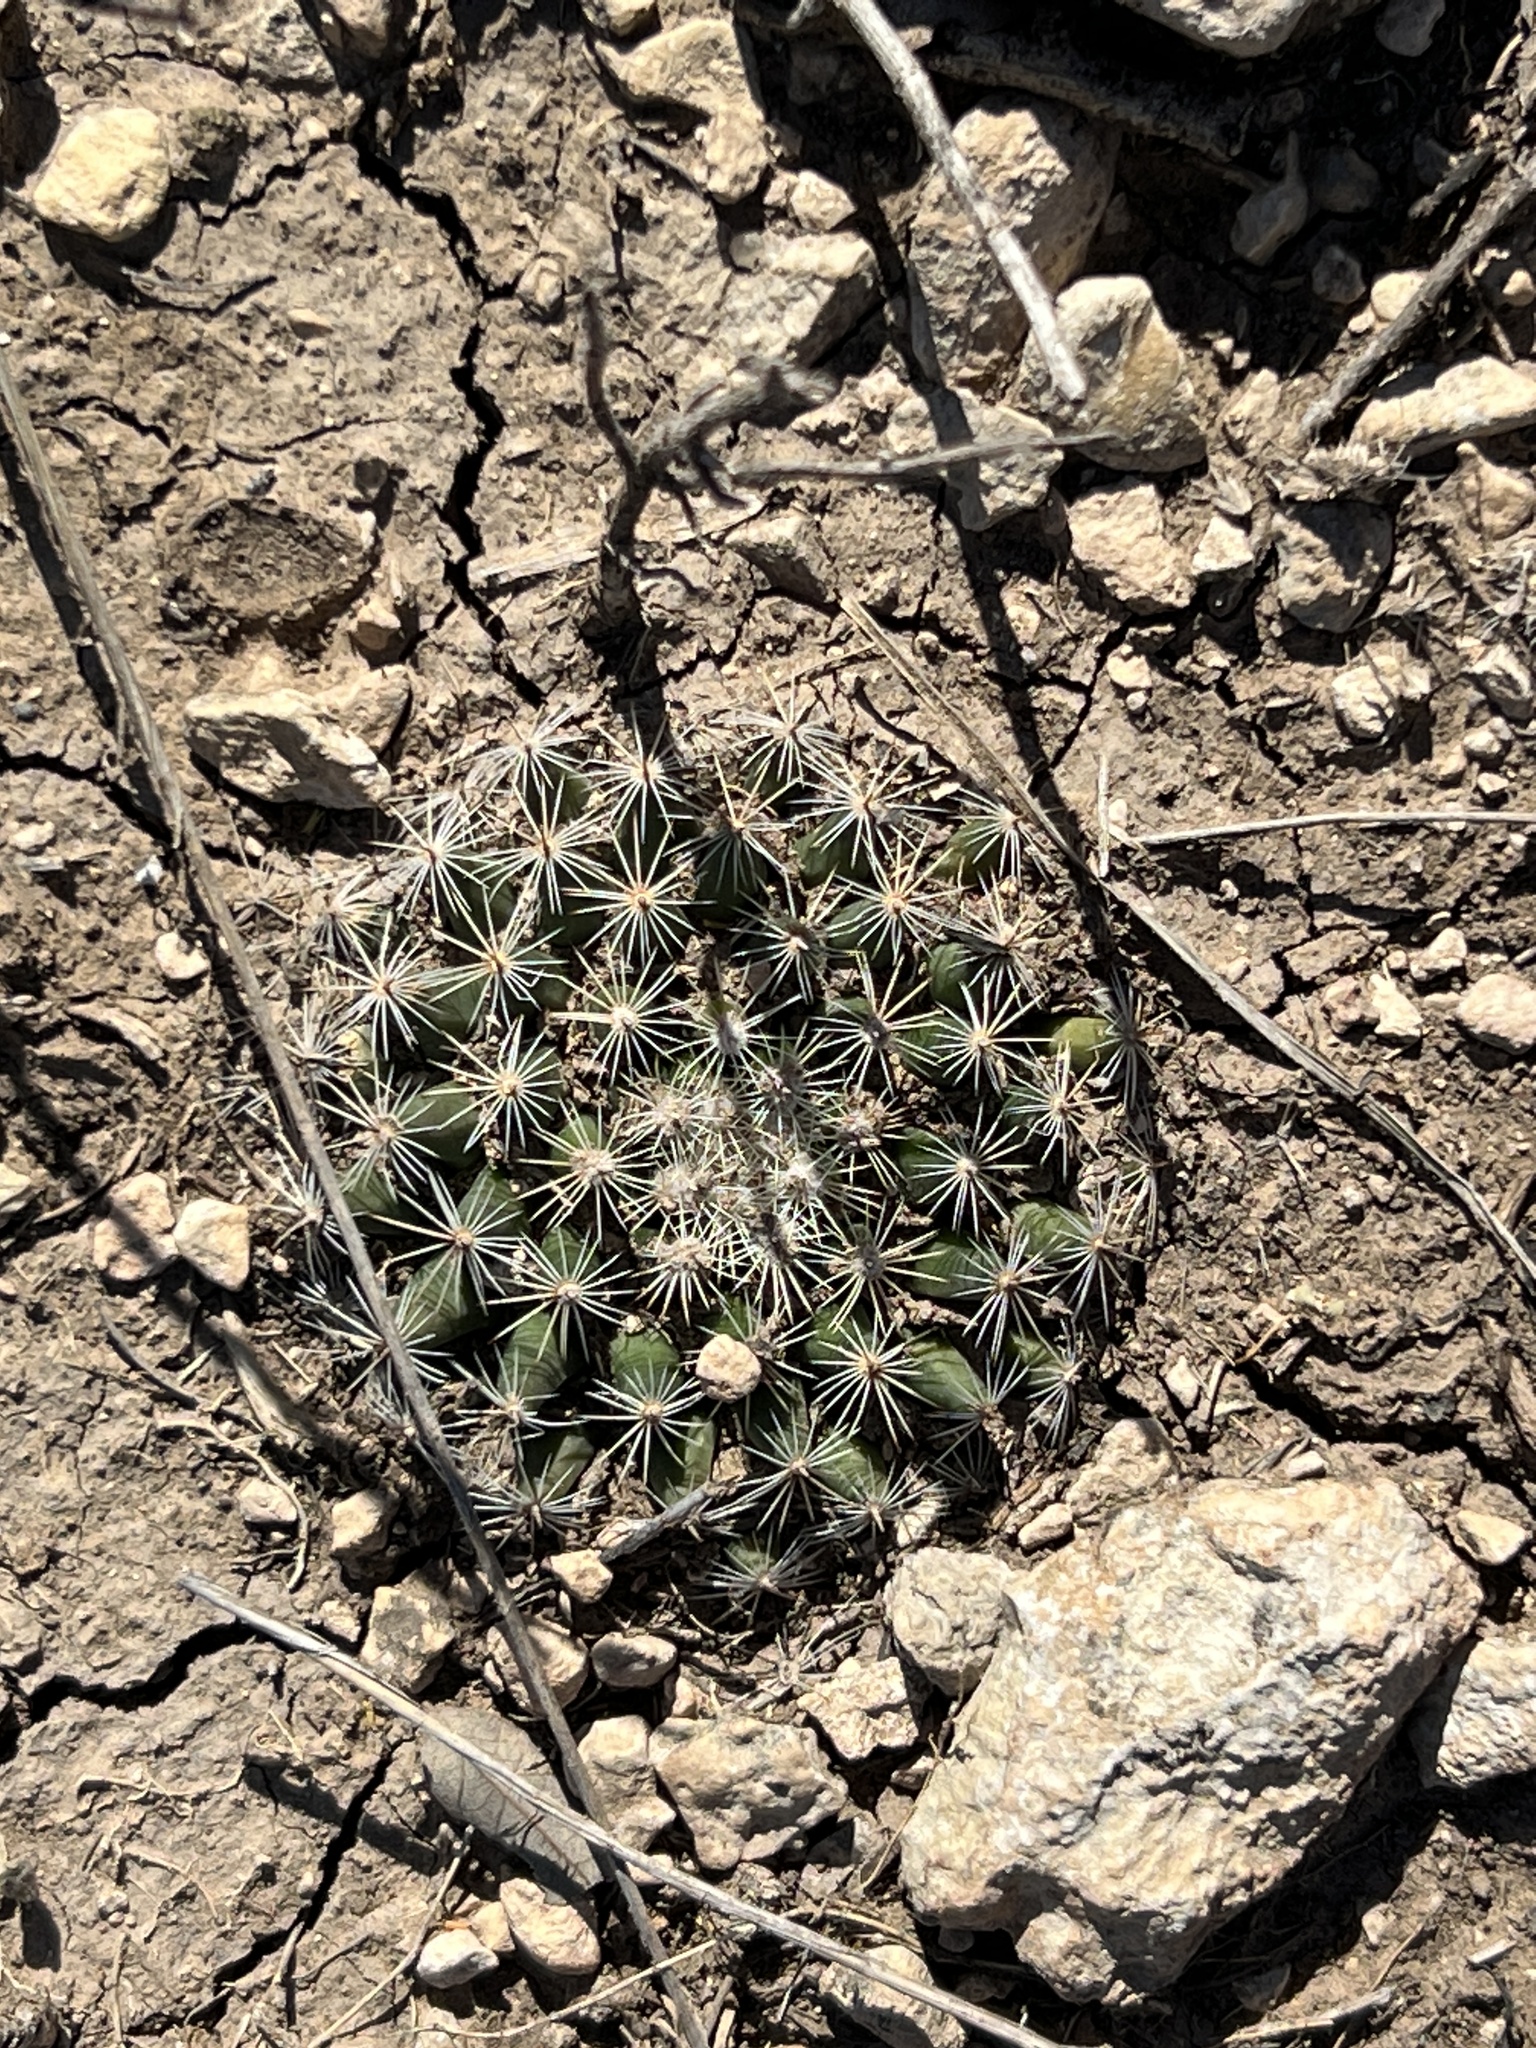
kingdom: Plantae
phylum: Tracheophyta
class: Magnoliopsida
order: Caryophyllales
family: Cactaceae
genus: Mammillaria
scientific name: Mammillaria heyderi
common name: Little nipple cactus
